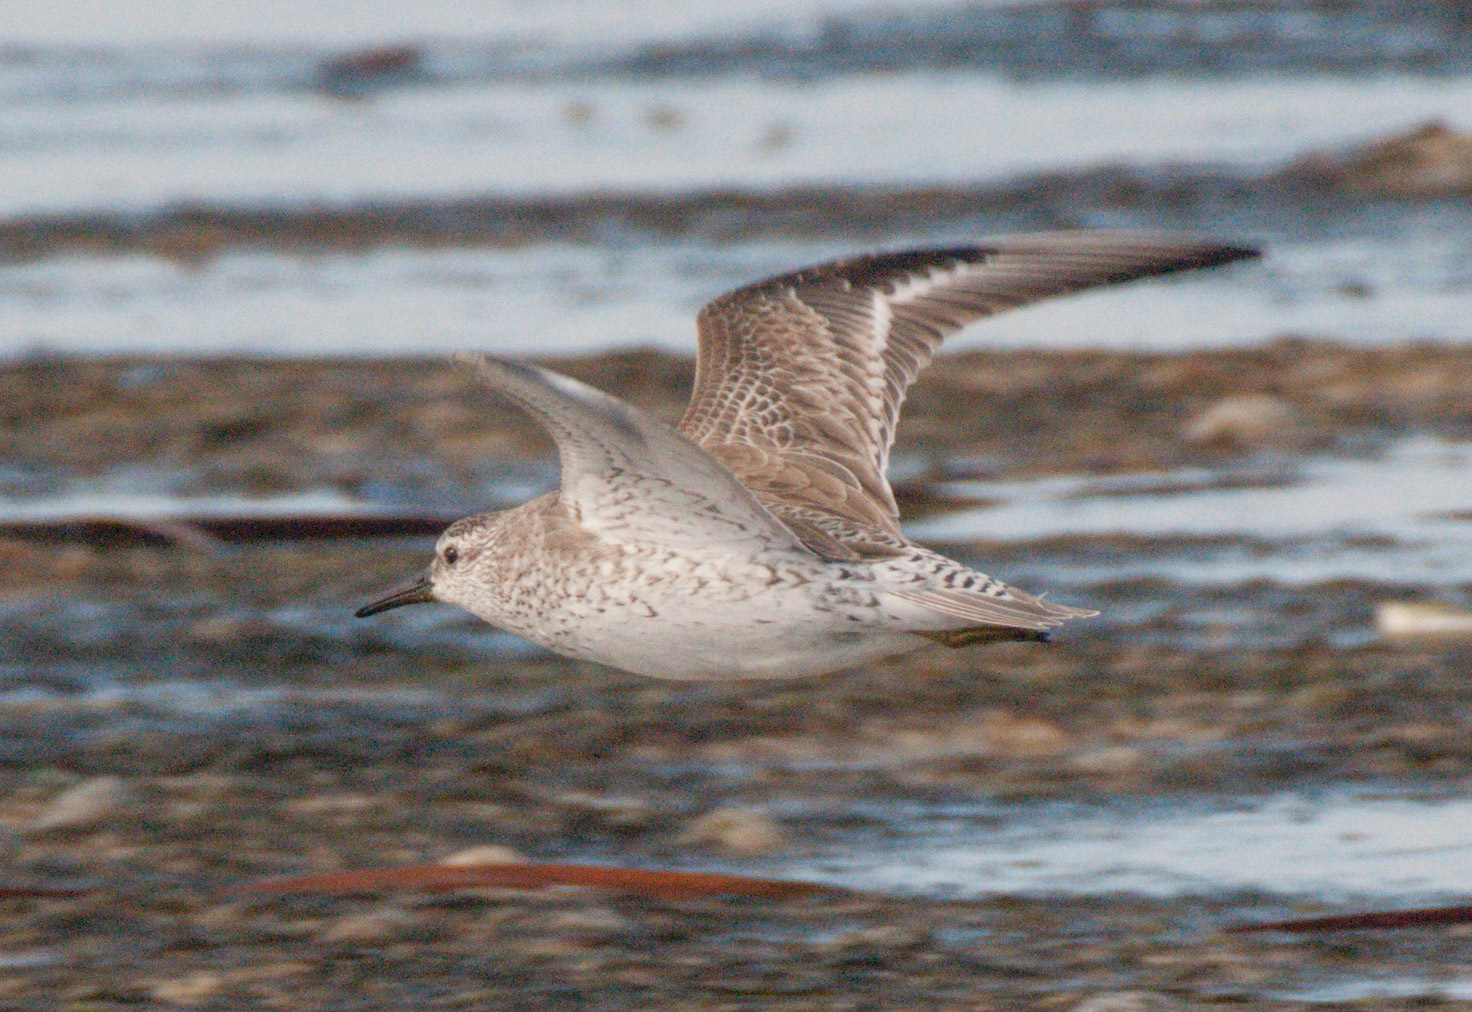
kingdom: Animalia
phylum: Chordata
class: Aves
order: Charadriiformes
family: Scolopacidae
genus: Calidris
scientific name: Calidris canutus
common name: Red knot
